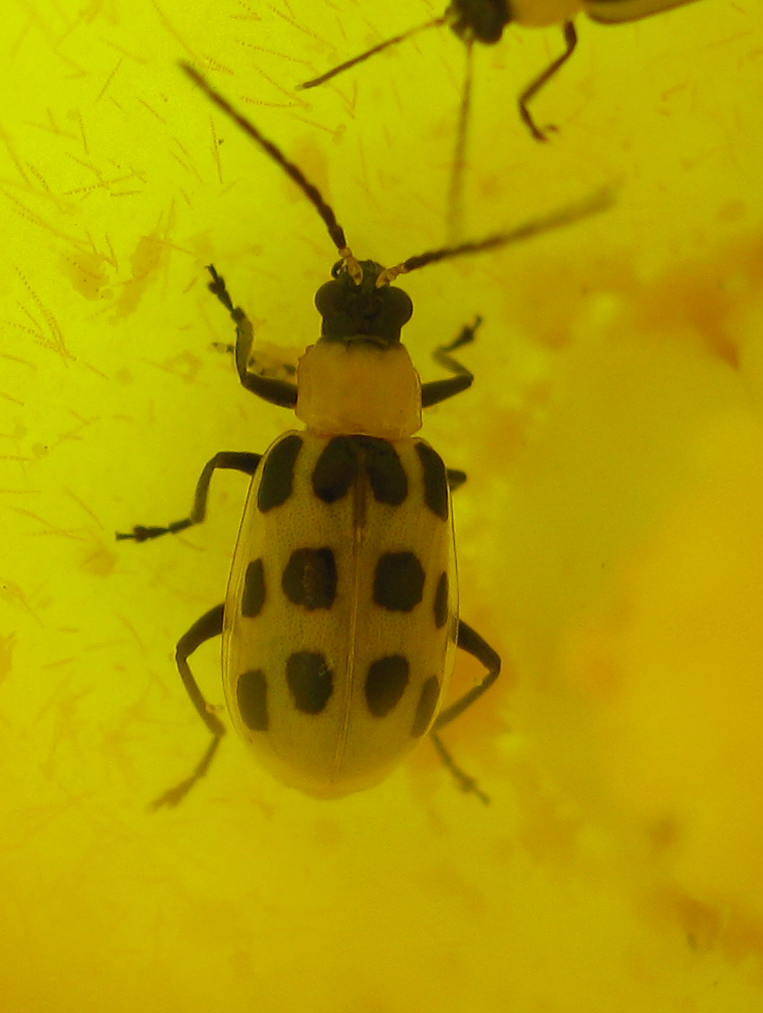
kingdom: Animalia
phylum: Arthropoda
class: Insecta
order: Coleoptera
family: Chrysomelidae
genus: Diabrotica
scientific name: Diabrotica undecimpunctata
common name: Spotted cucumber beetle
